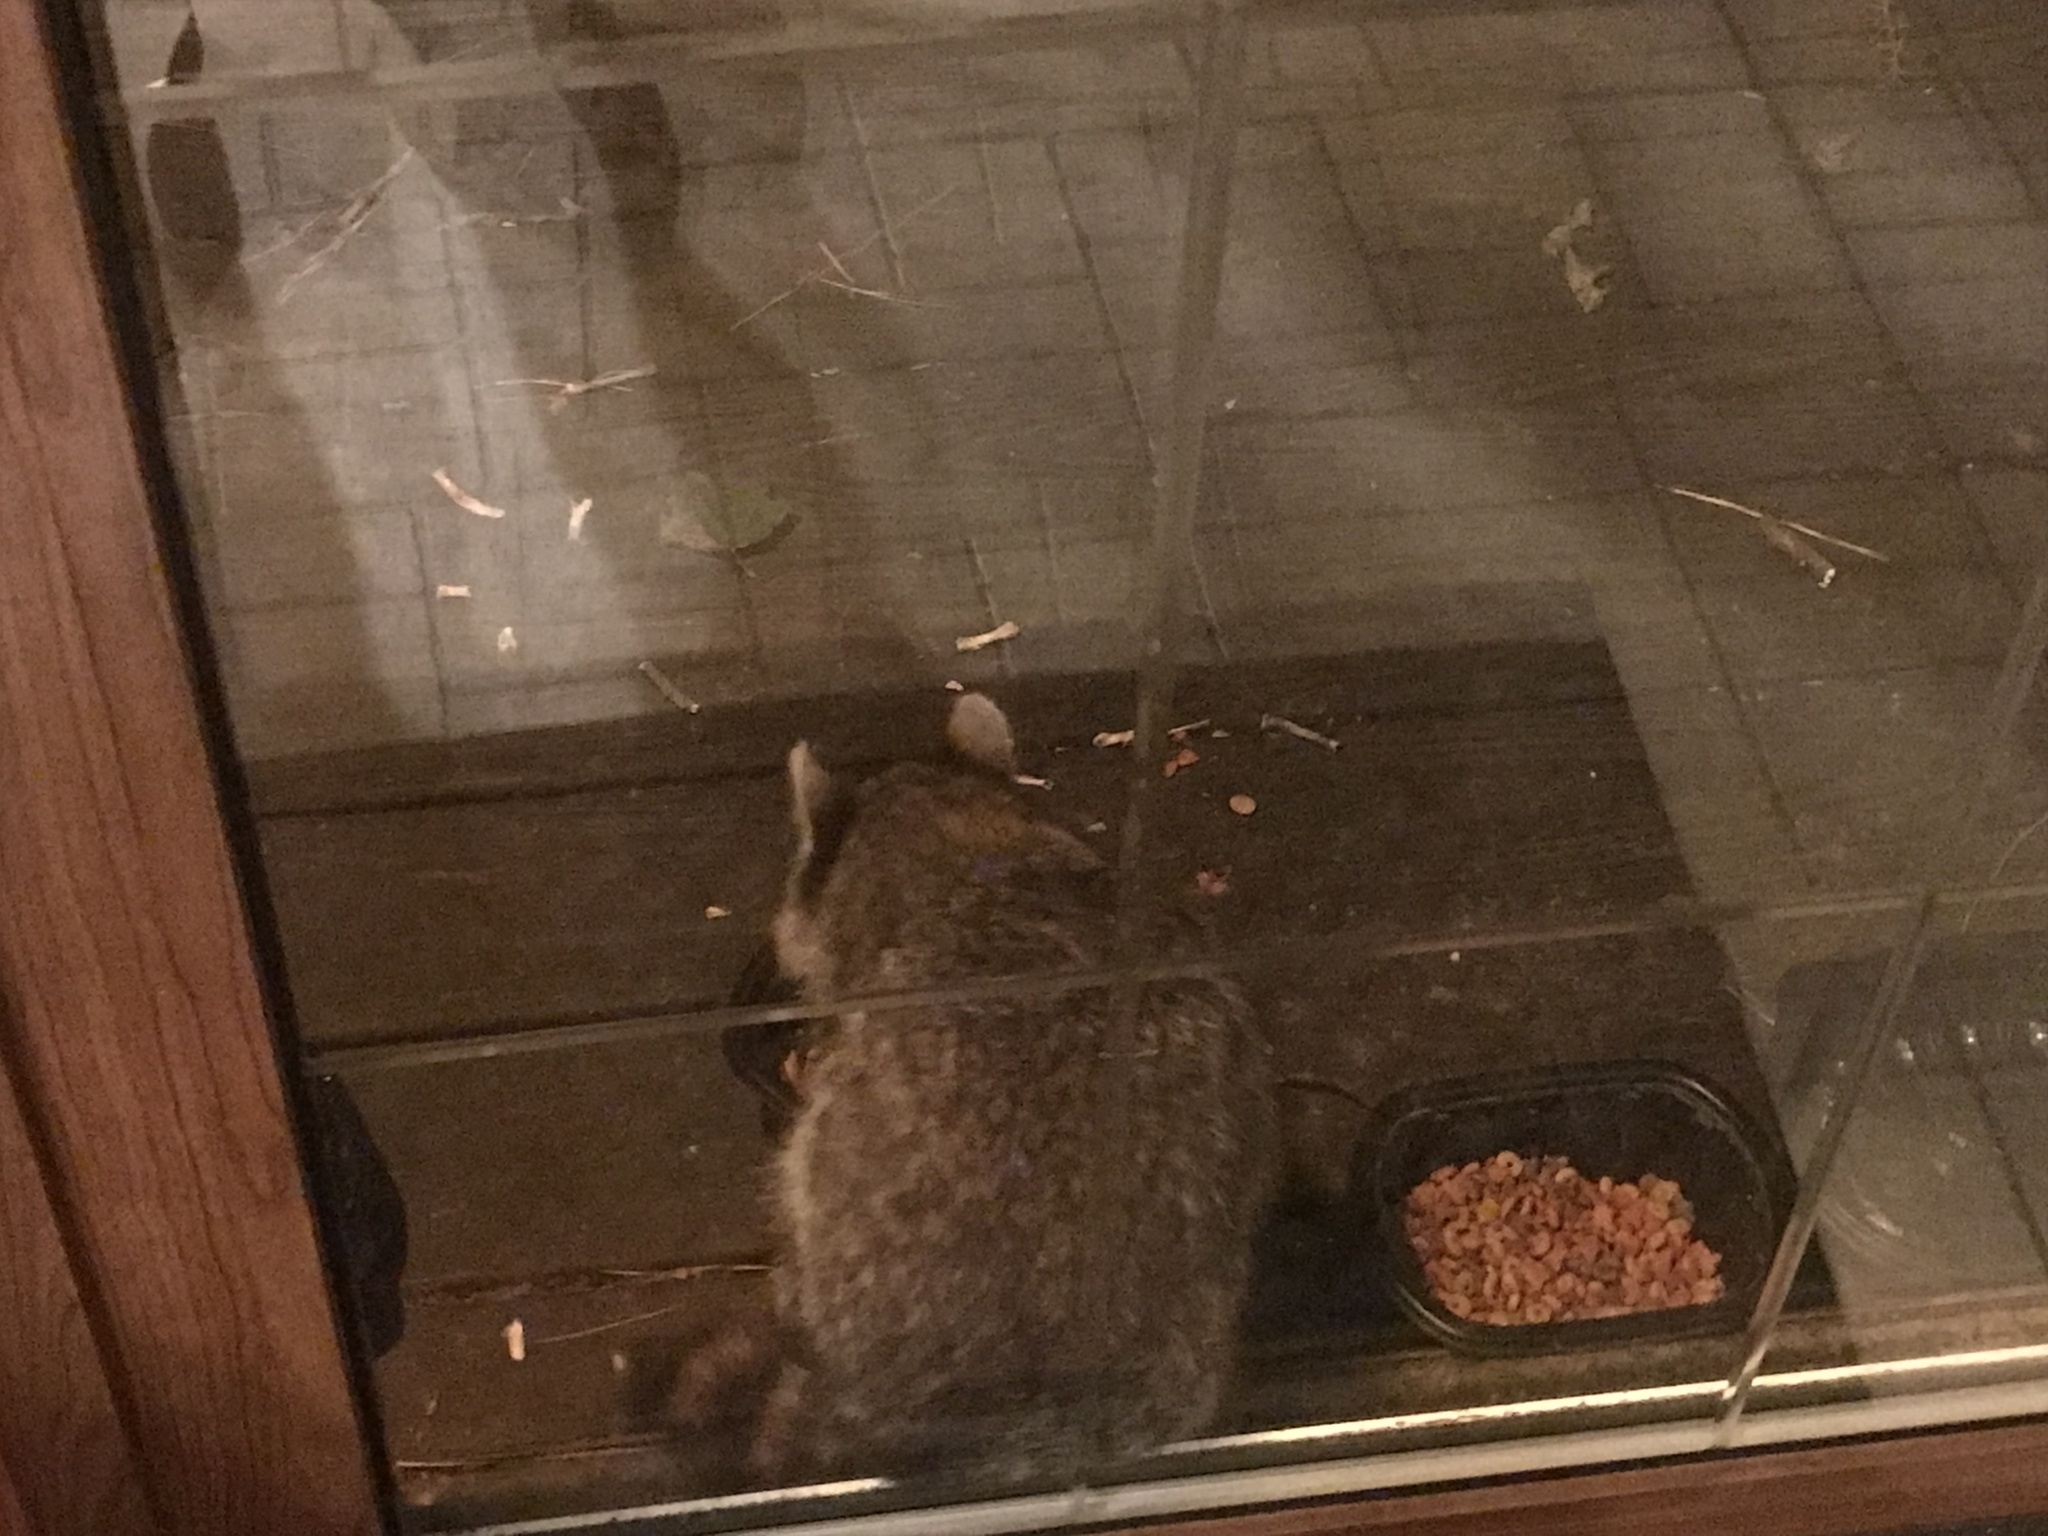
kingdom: Animalia
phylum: Chordata
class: Mammalia
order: Carnivora
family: Procyonidae
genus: Procyon
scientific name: Procyon lotor
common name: Raccoon
